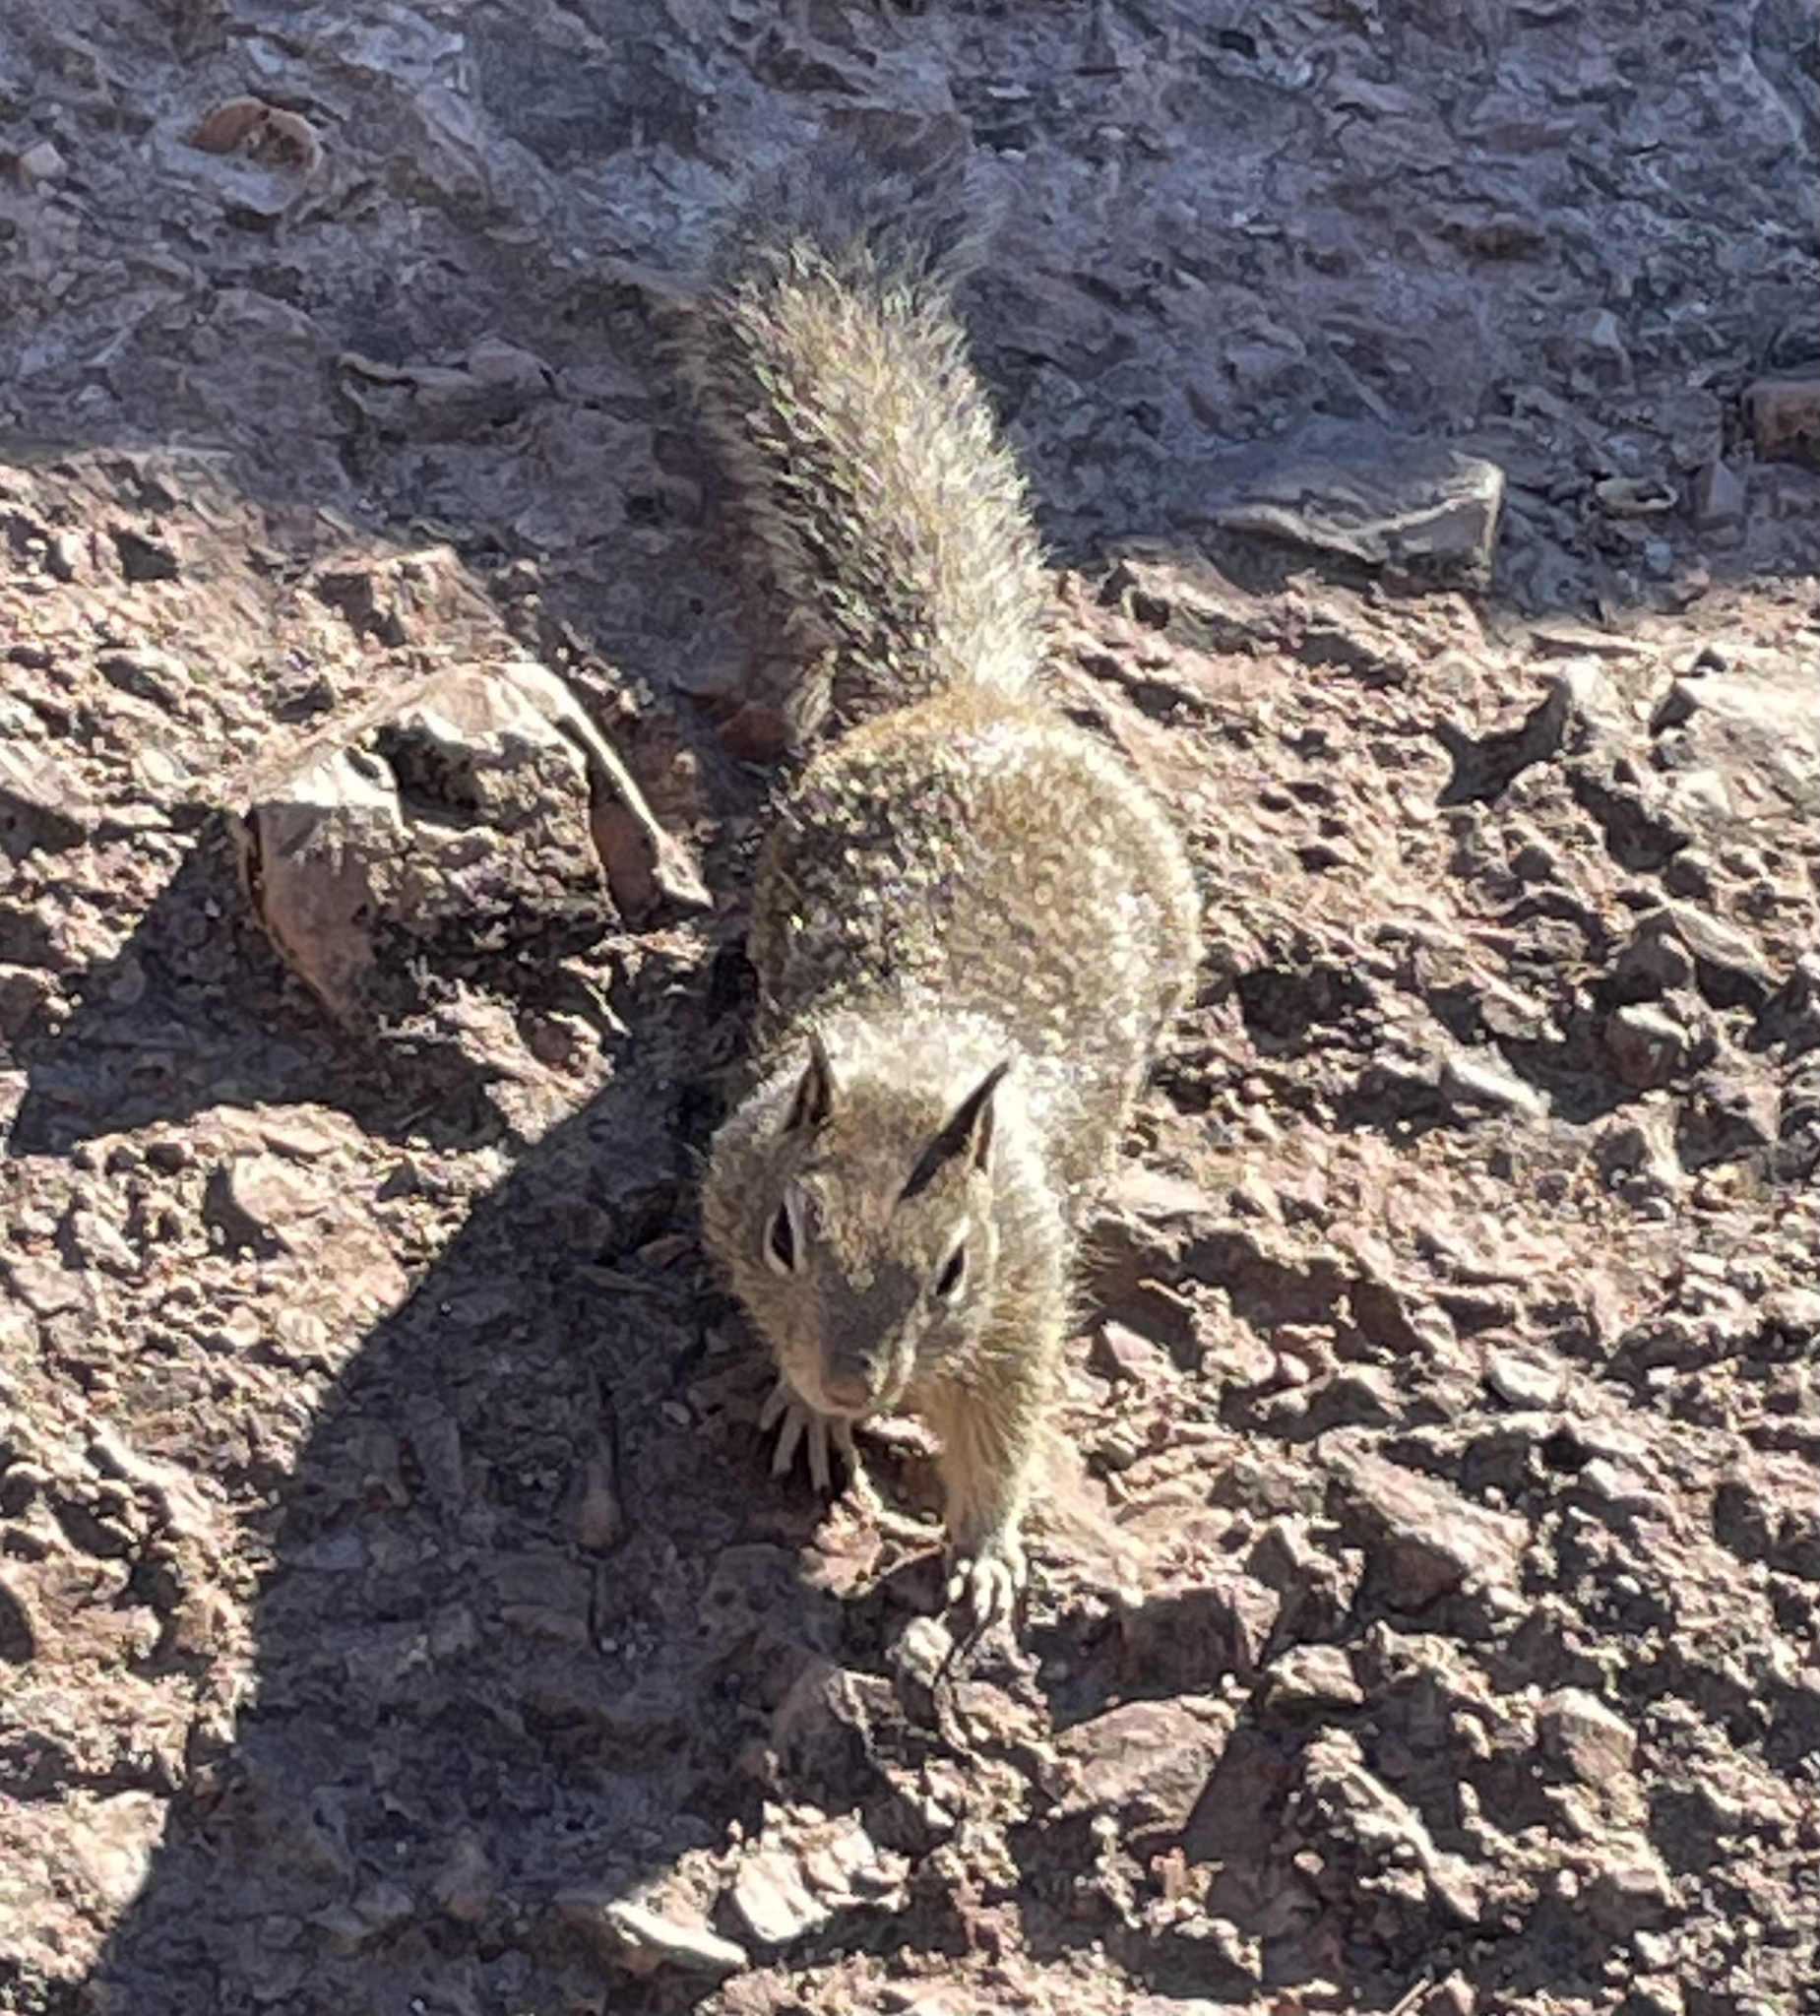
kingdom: Animalia
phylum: Chordata
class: Mammalia
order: Rodentia
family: Sciuridae
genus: Otospermophilus
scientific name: Otospermophilus beecheyi
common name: California ground squirrel
